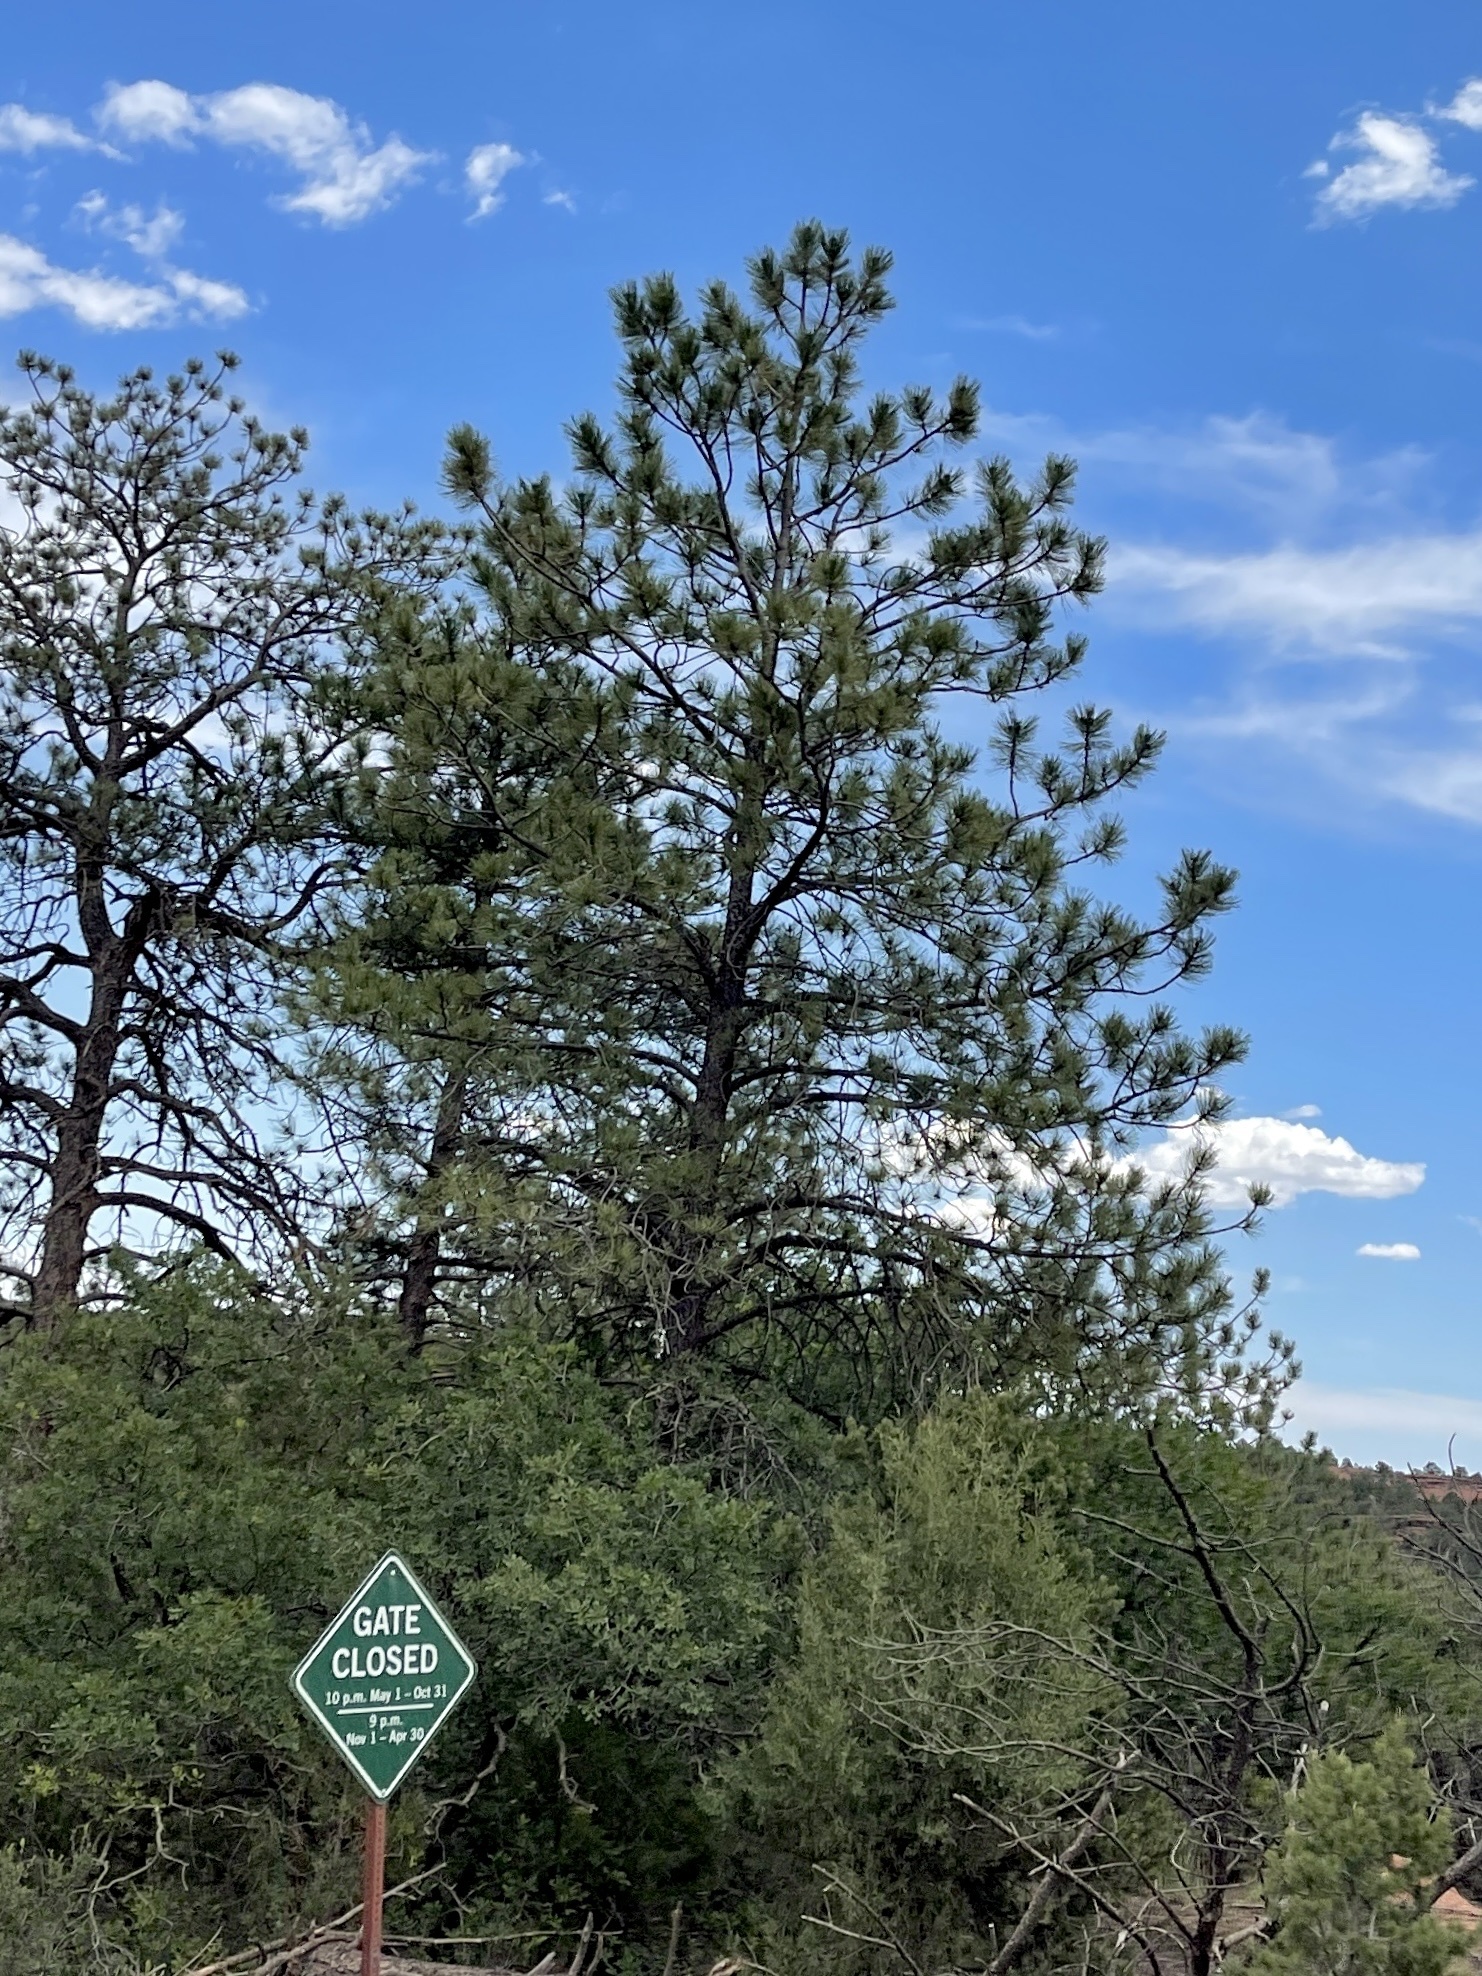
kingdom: Plantae
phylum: Tracheophyta
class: Pinopsida
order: Pinales
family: Pinaceae
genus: Pinus
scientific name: Pinus ponderosa
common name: Western yellow-pine
